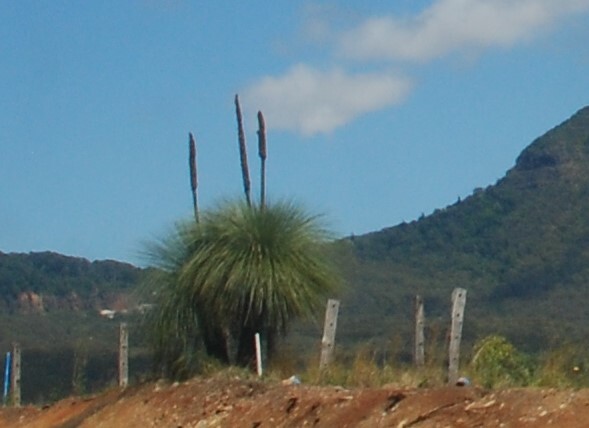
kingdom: Plantae
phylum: Tracheophyta
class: Liliopsida
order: Asparagales
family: Asphodelaceae
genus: Xanthorrhoea
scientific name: Xanthorrhoea glauca
